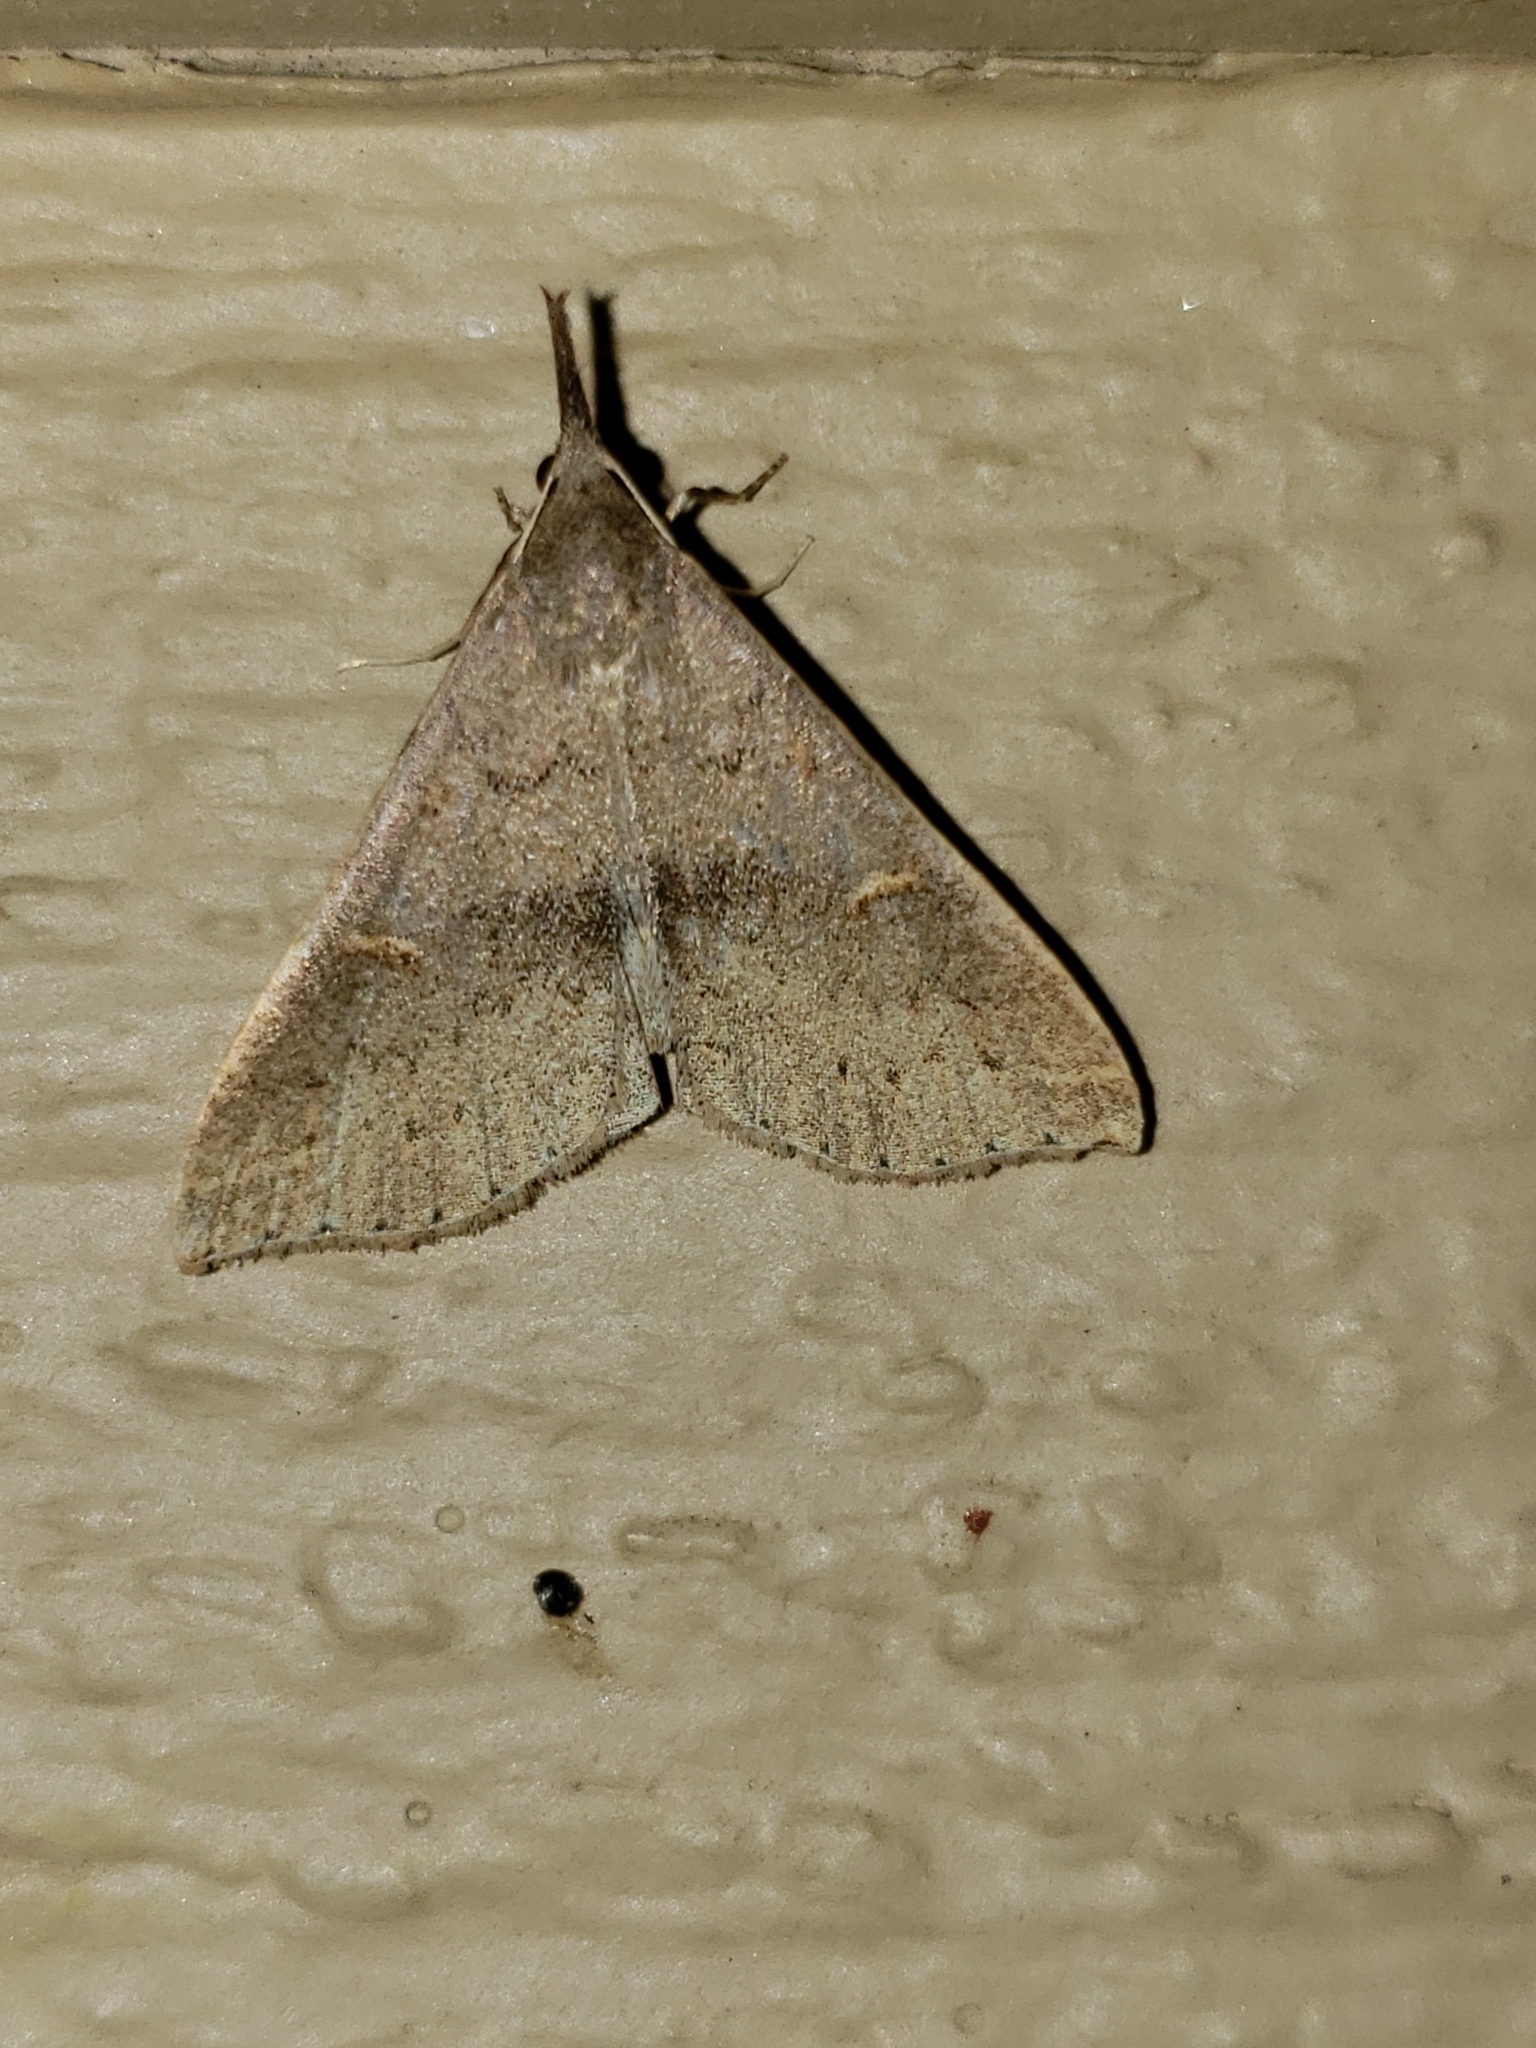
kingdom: Animalia
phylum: Arthropoda
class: Insecta
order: Lepidoptera
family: Erebidae
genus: Renia
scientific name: Renia adspergillus
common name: Speckled renia moth
